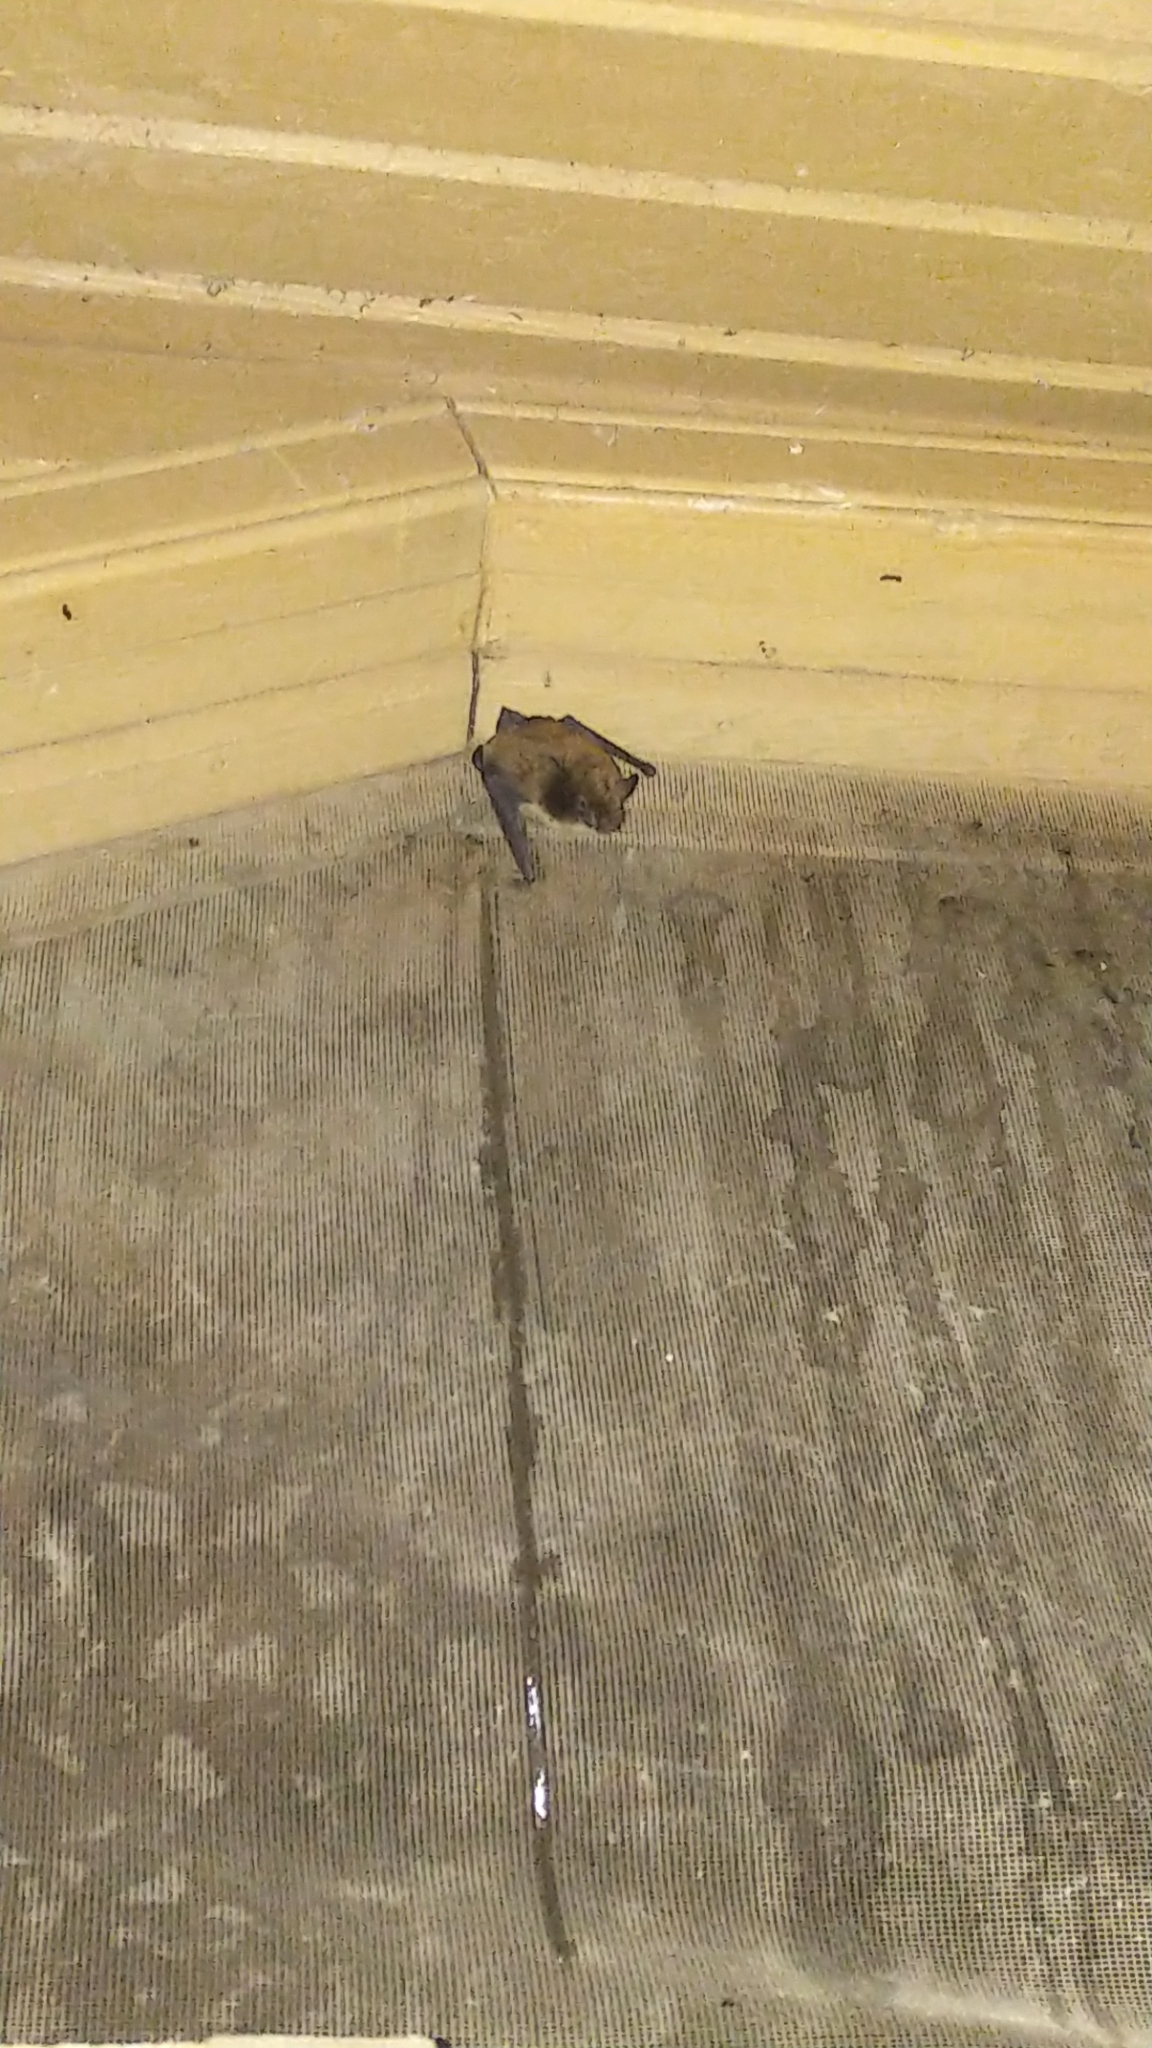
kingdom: Animalia
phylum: Chordata
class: Mammalia
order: Chiroptera
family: Vespertilionidae
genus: Myotis
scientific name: Myotis lucifugus
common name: Little brown bat
